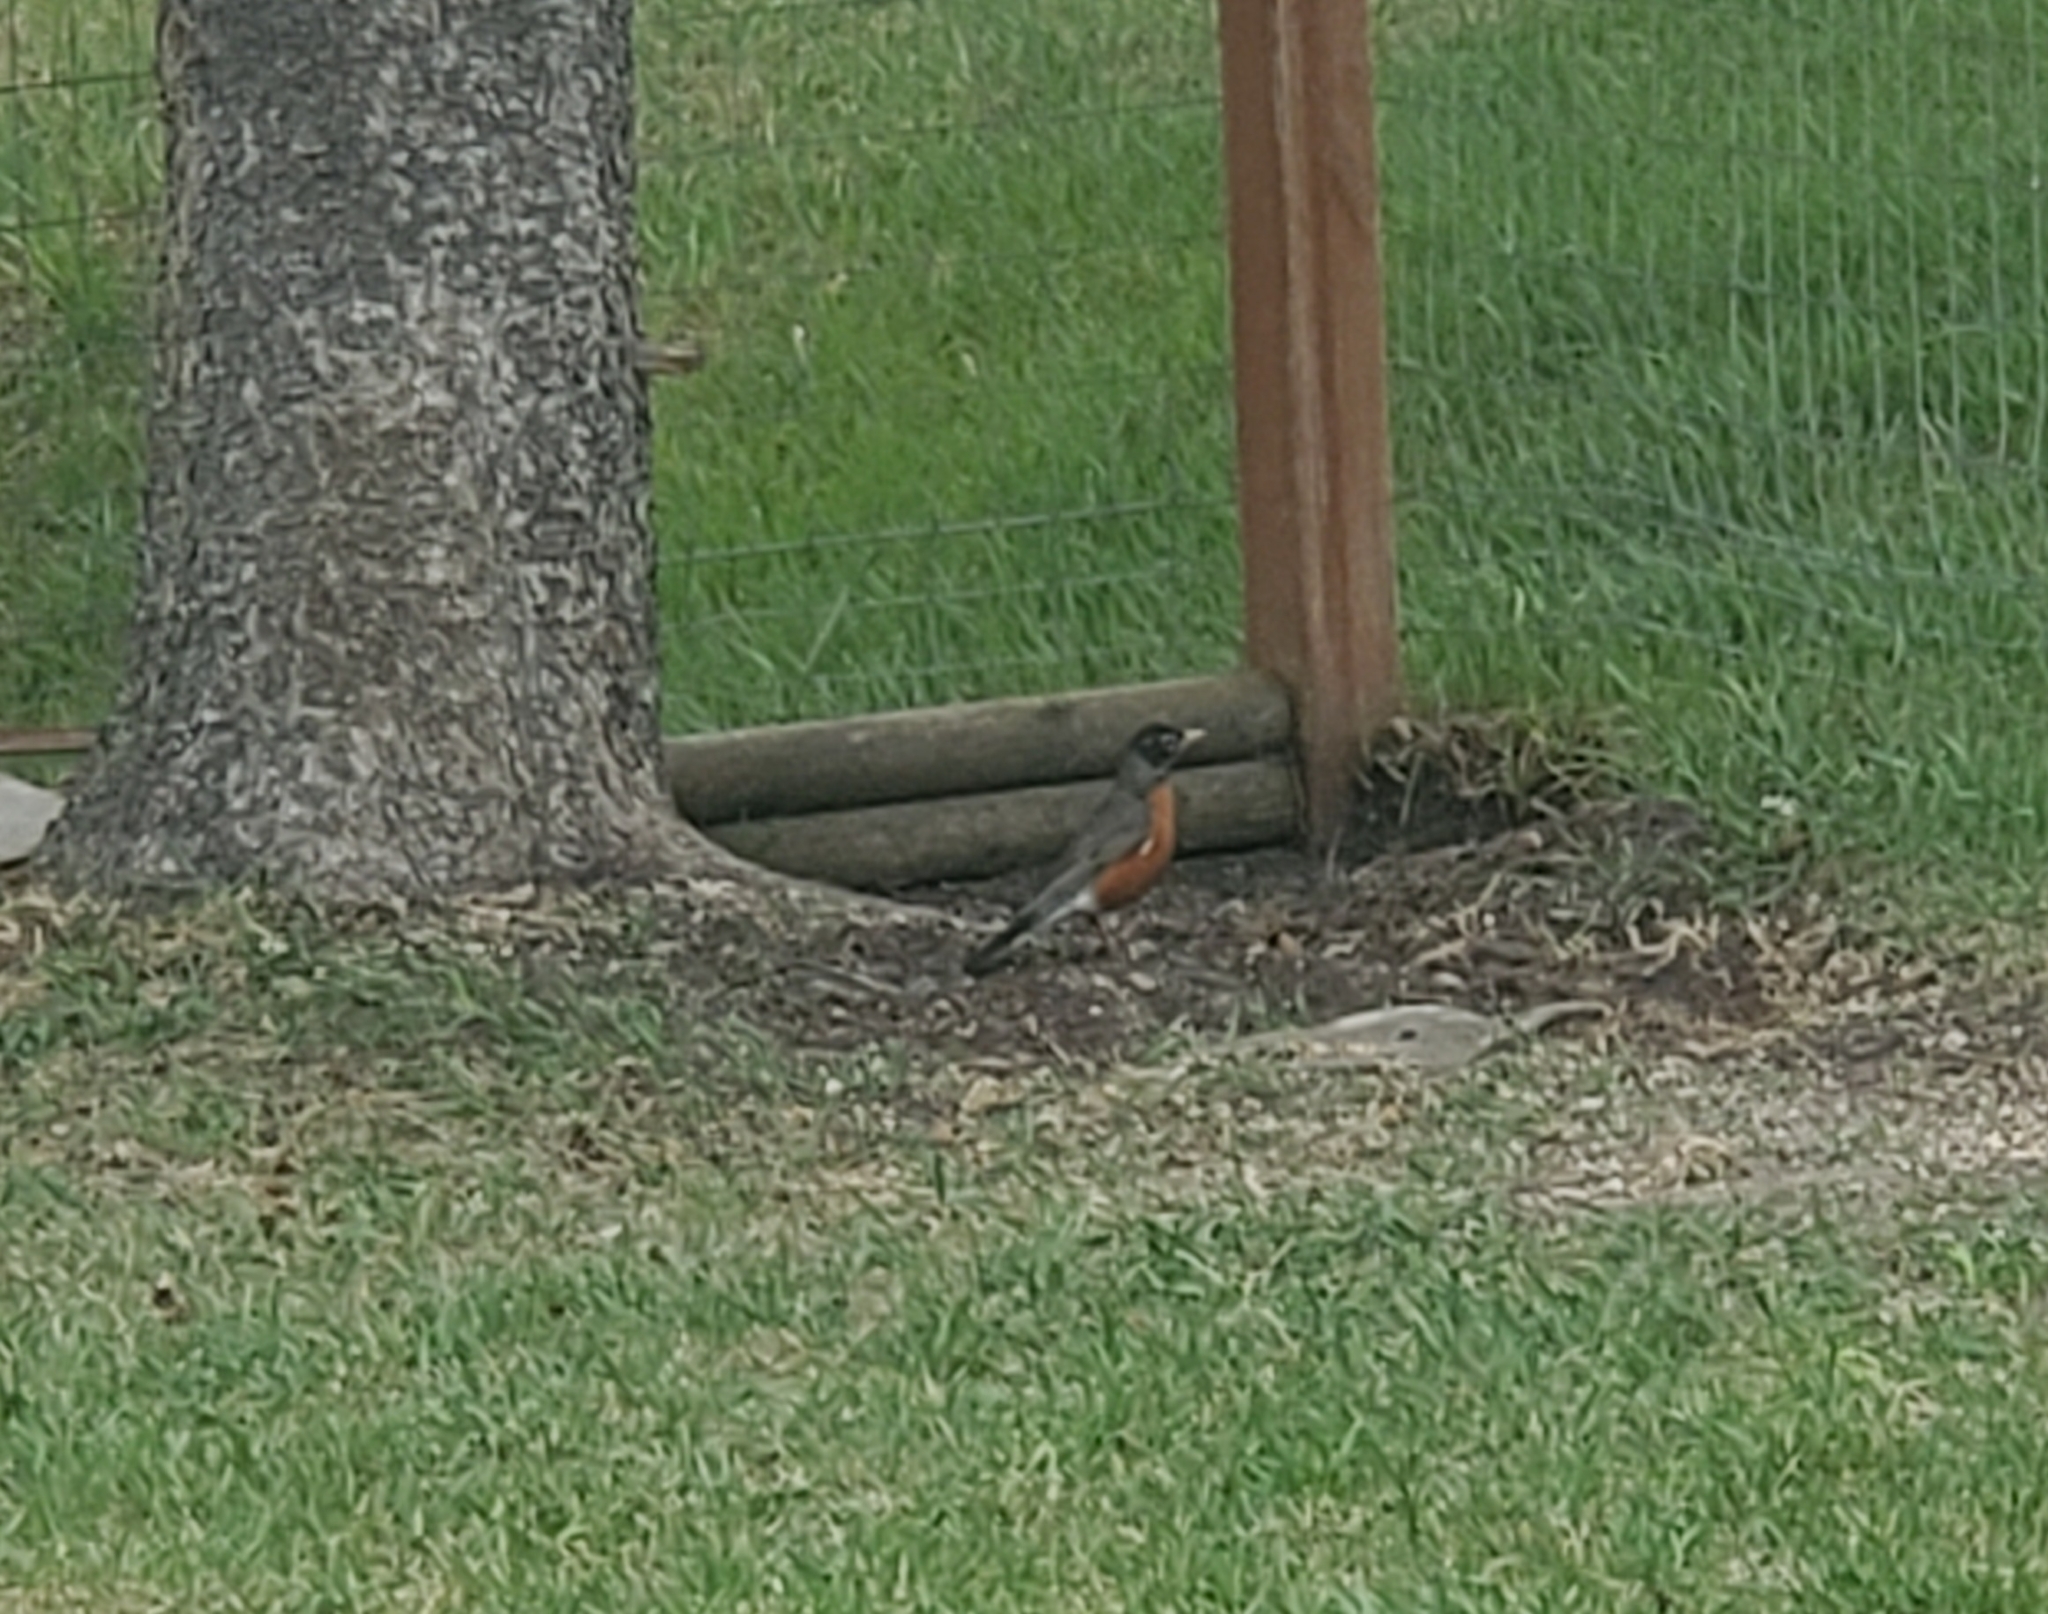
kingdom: Animalia
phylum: Chordata
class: Aves
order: Passeriformes
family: Turdidae
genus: Turdus
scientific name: Turdus migratorius
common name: American robin
